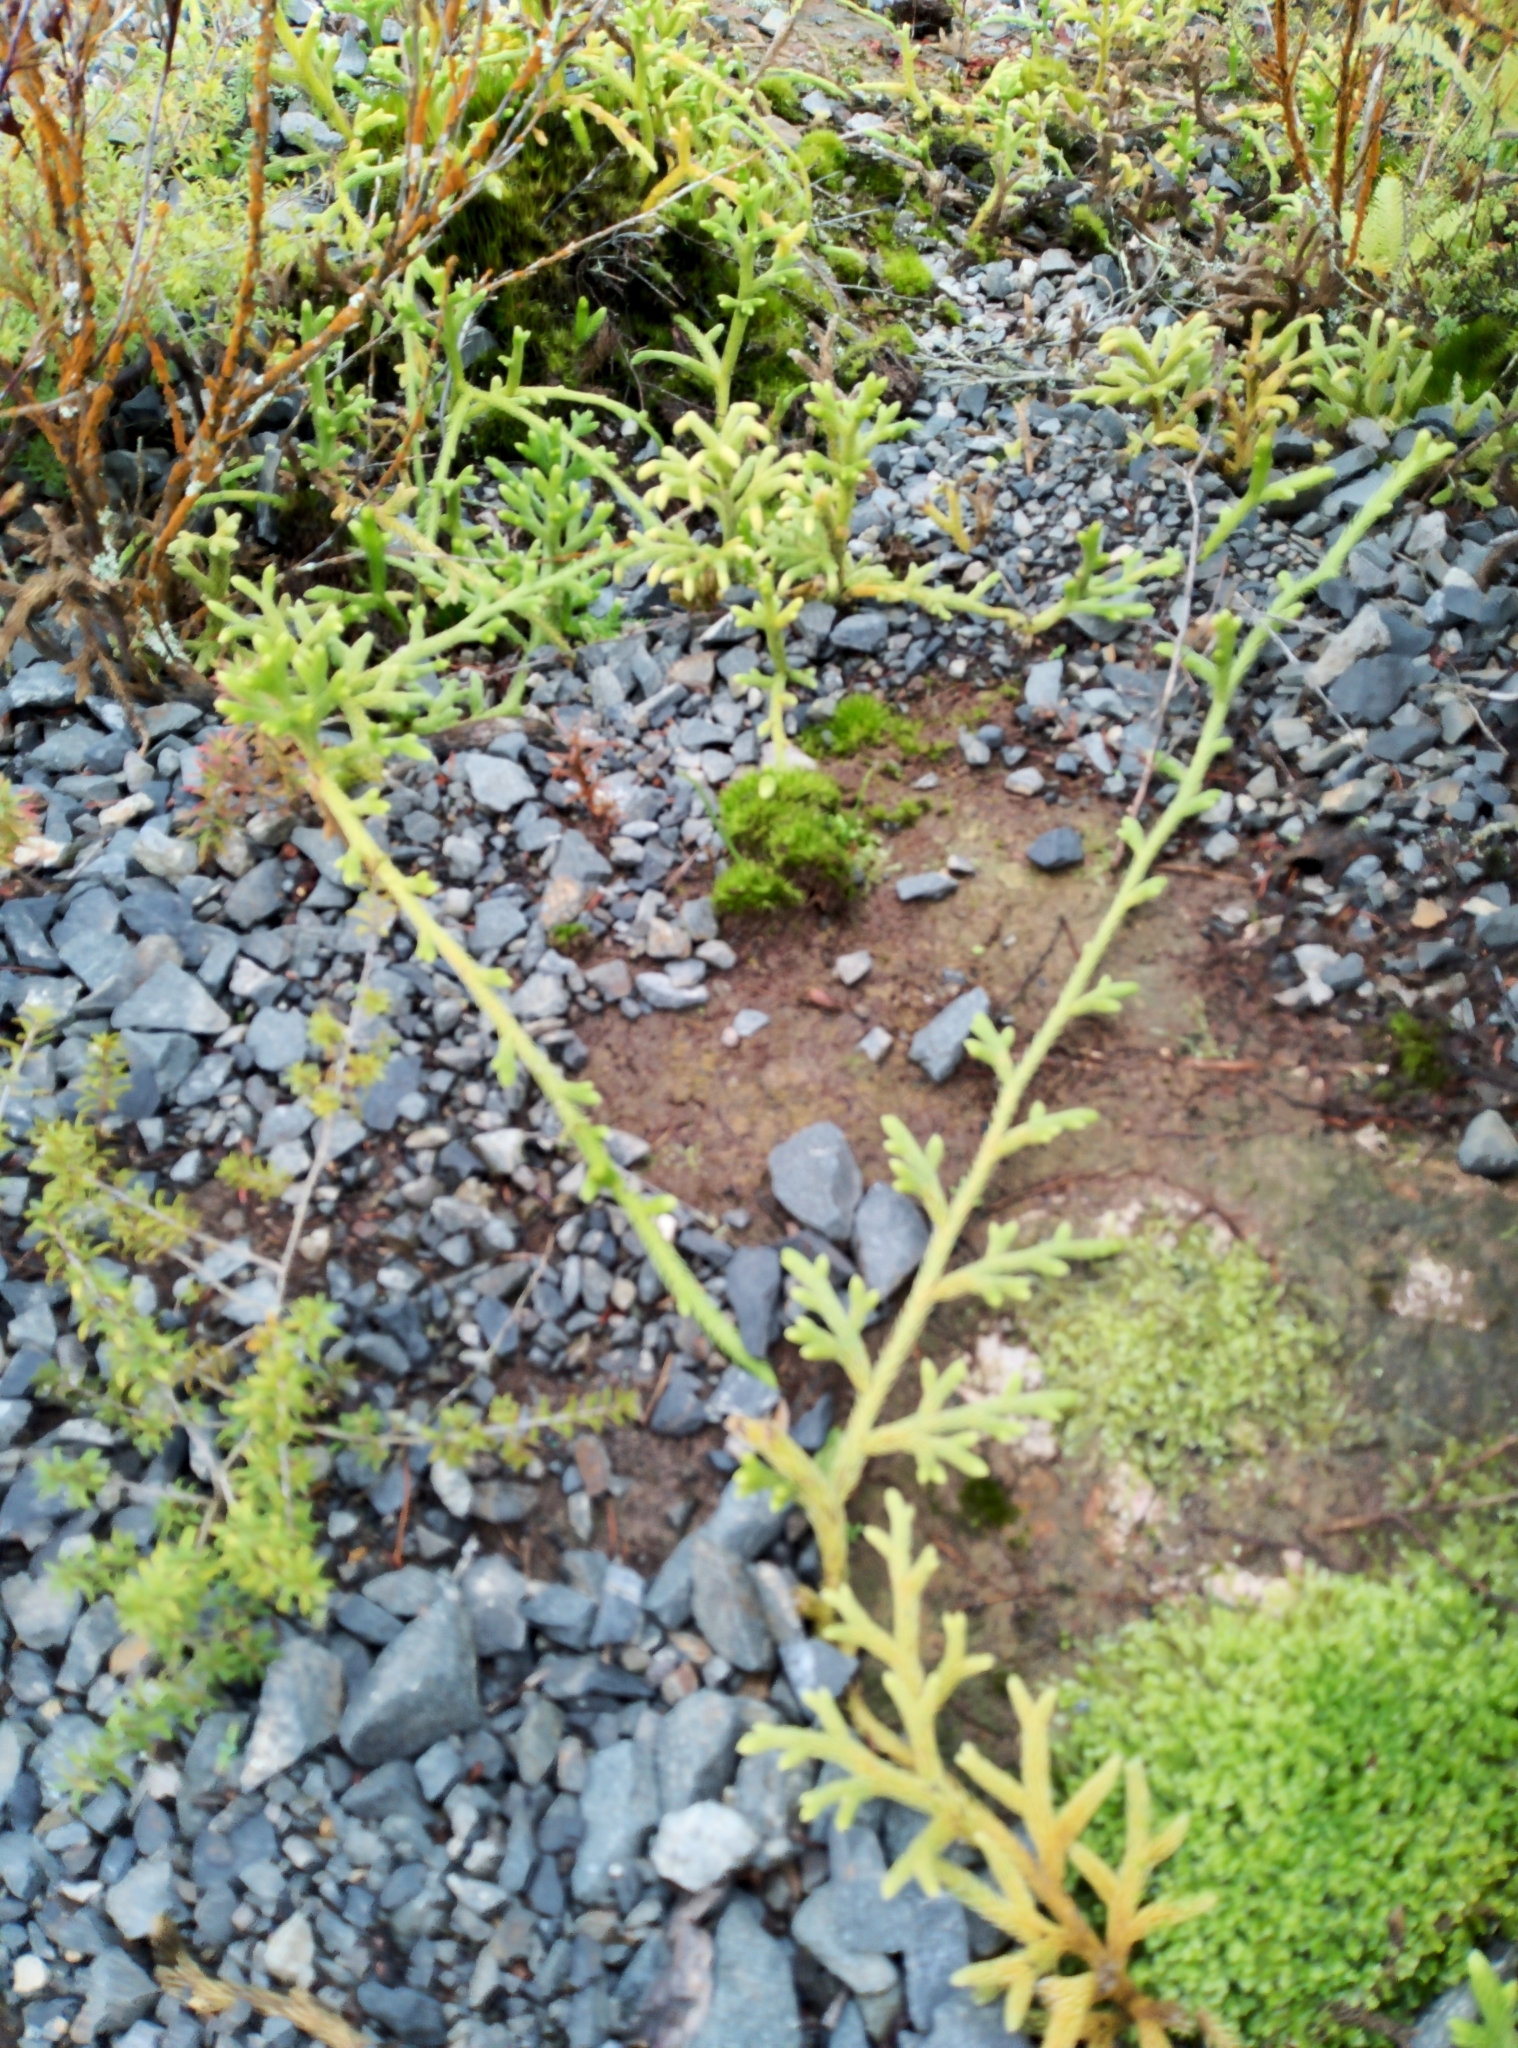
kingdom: Plantae
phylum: Tracheophyta
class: Lycopodiopsida
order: Lycopodiales
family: Lycopodiaceae
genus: Palhinhaea
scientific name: Palhinhaea cernua
